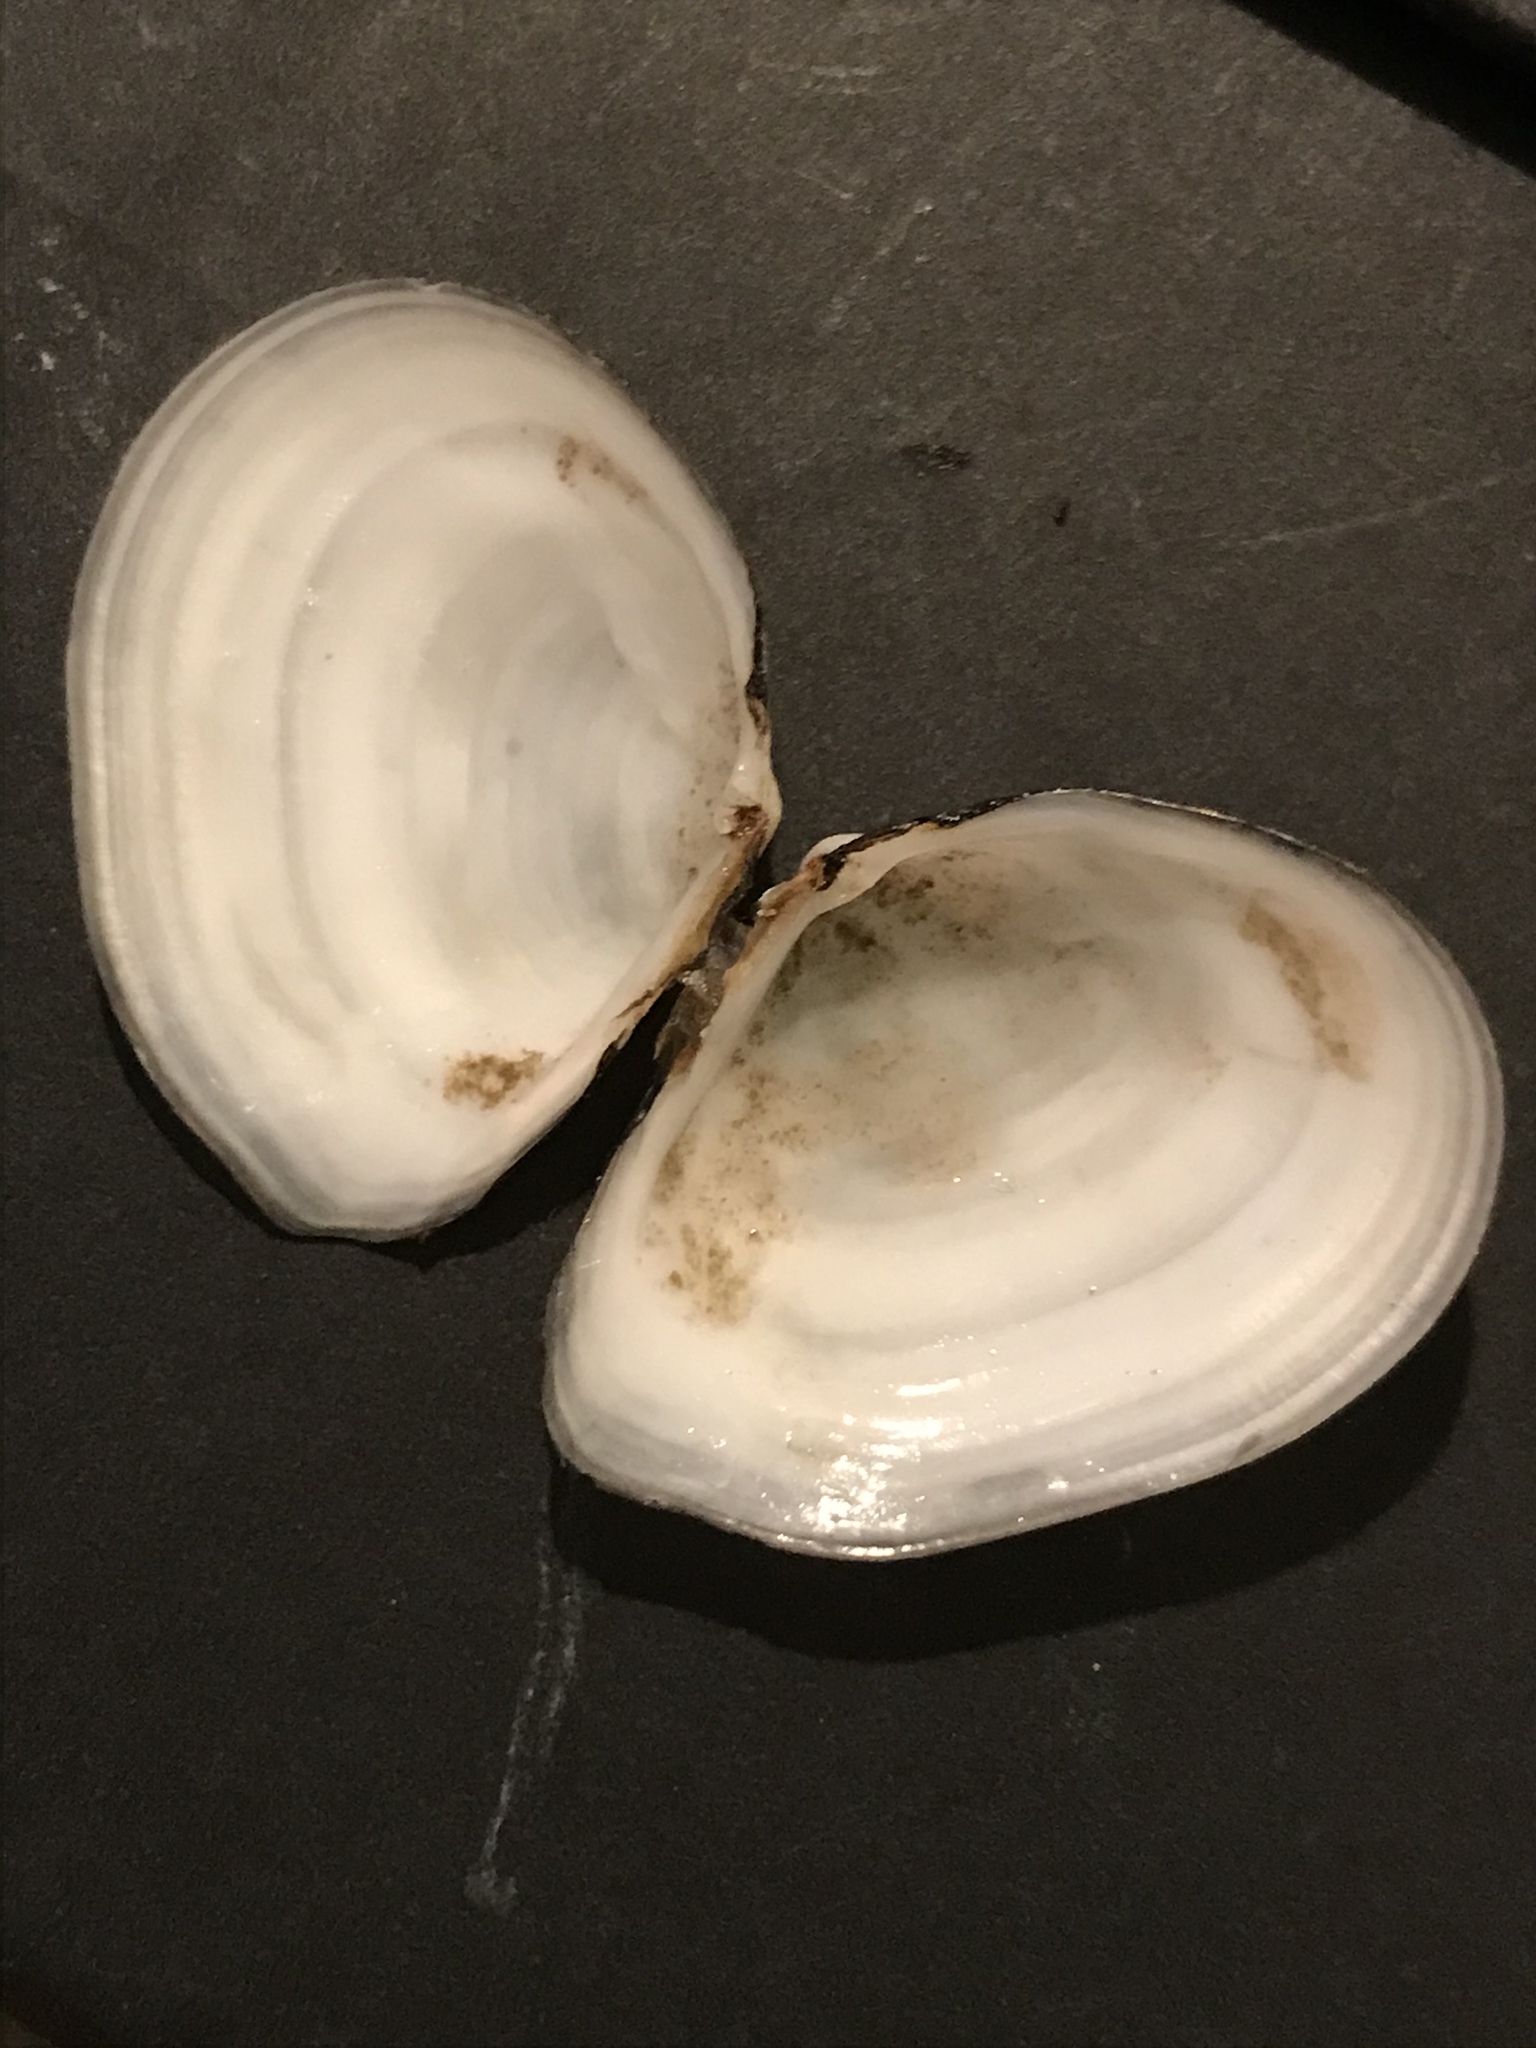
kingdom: Animalia
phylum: Mollusca
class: Bivalvia
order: Cardiida
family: Tellinidae
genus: Macoma
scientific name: Macoma nasuta
